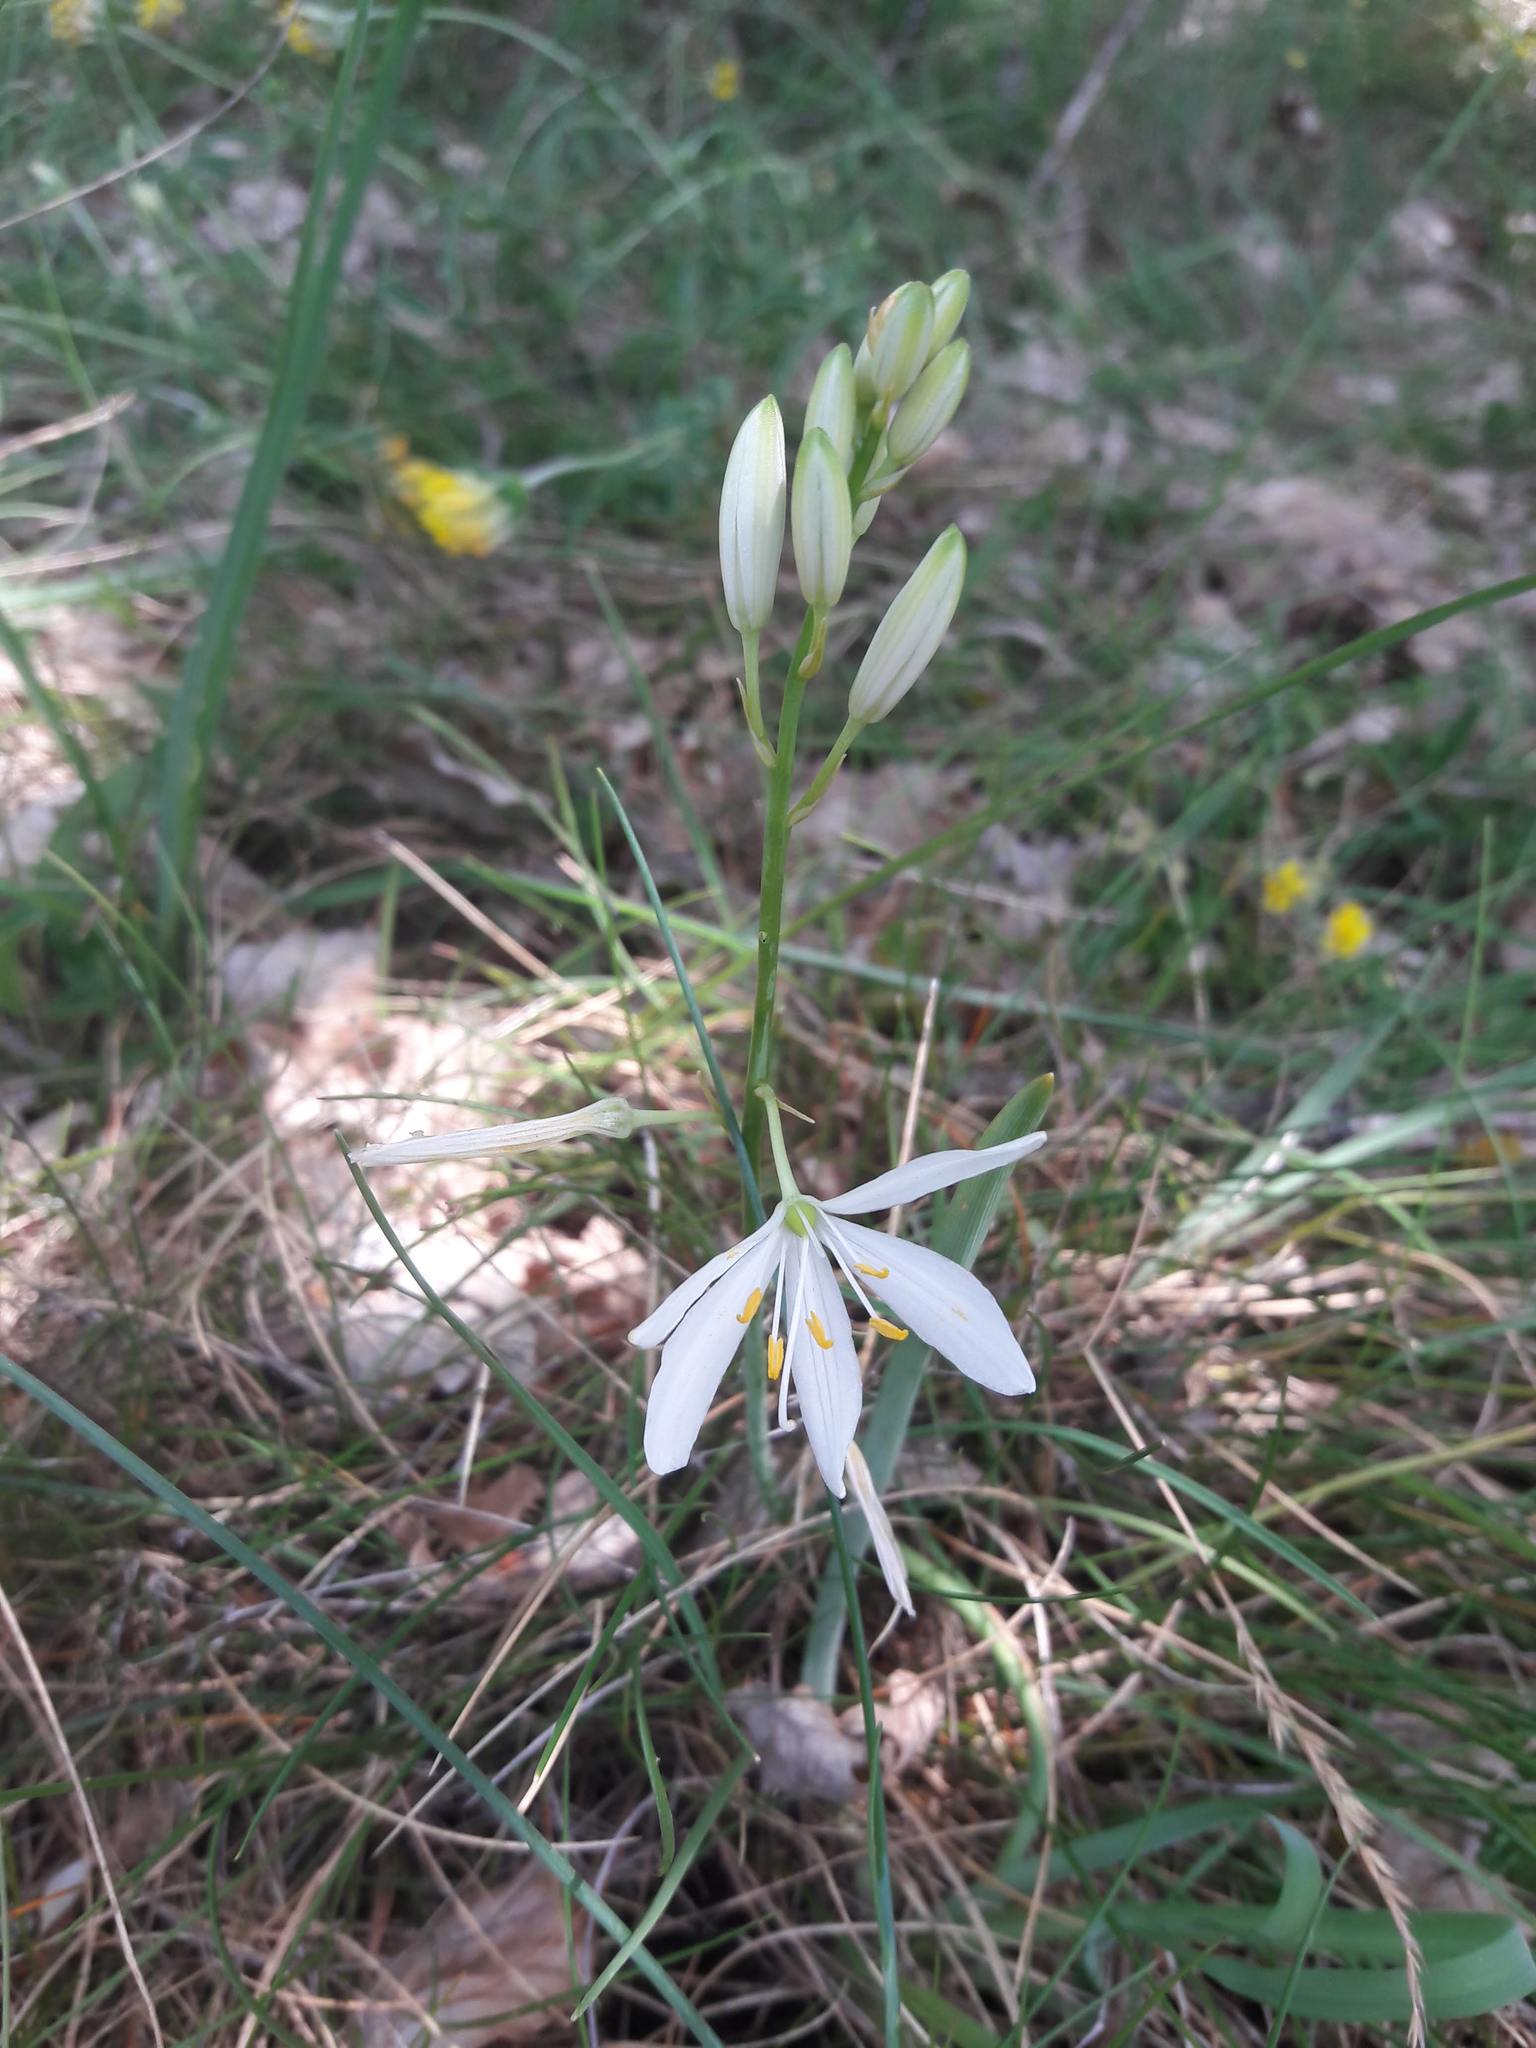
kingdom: Plantae
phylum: Tracheophyta
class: Liliopsida
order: Asparagales
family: Asparagaceae
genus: Anthericum
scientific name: Anthericum liliago
